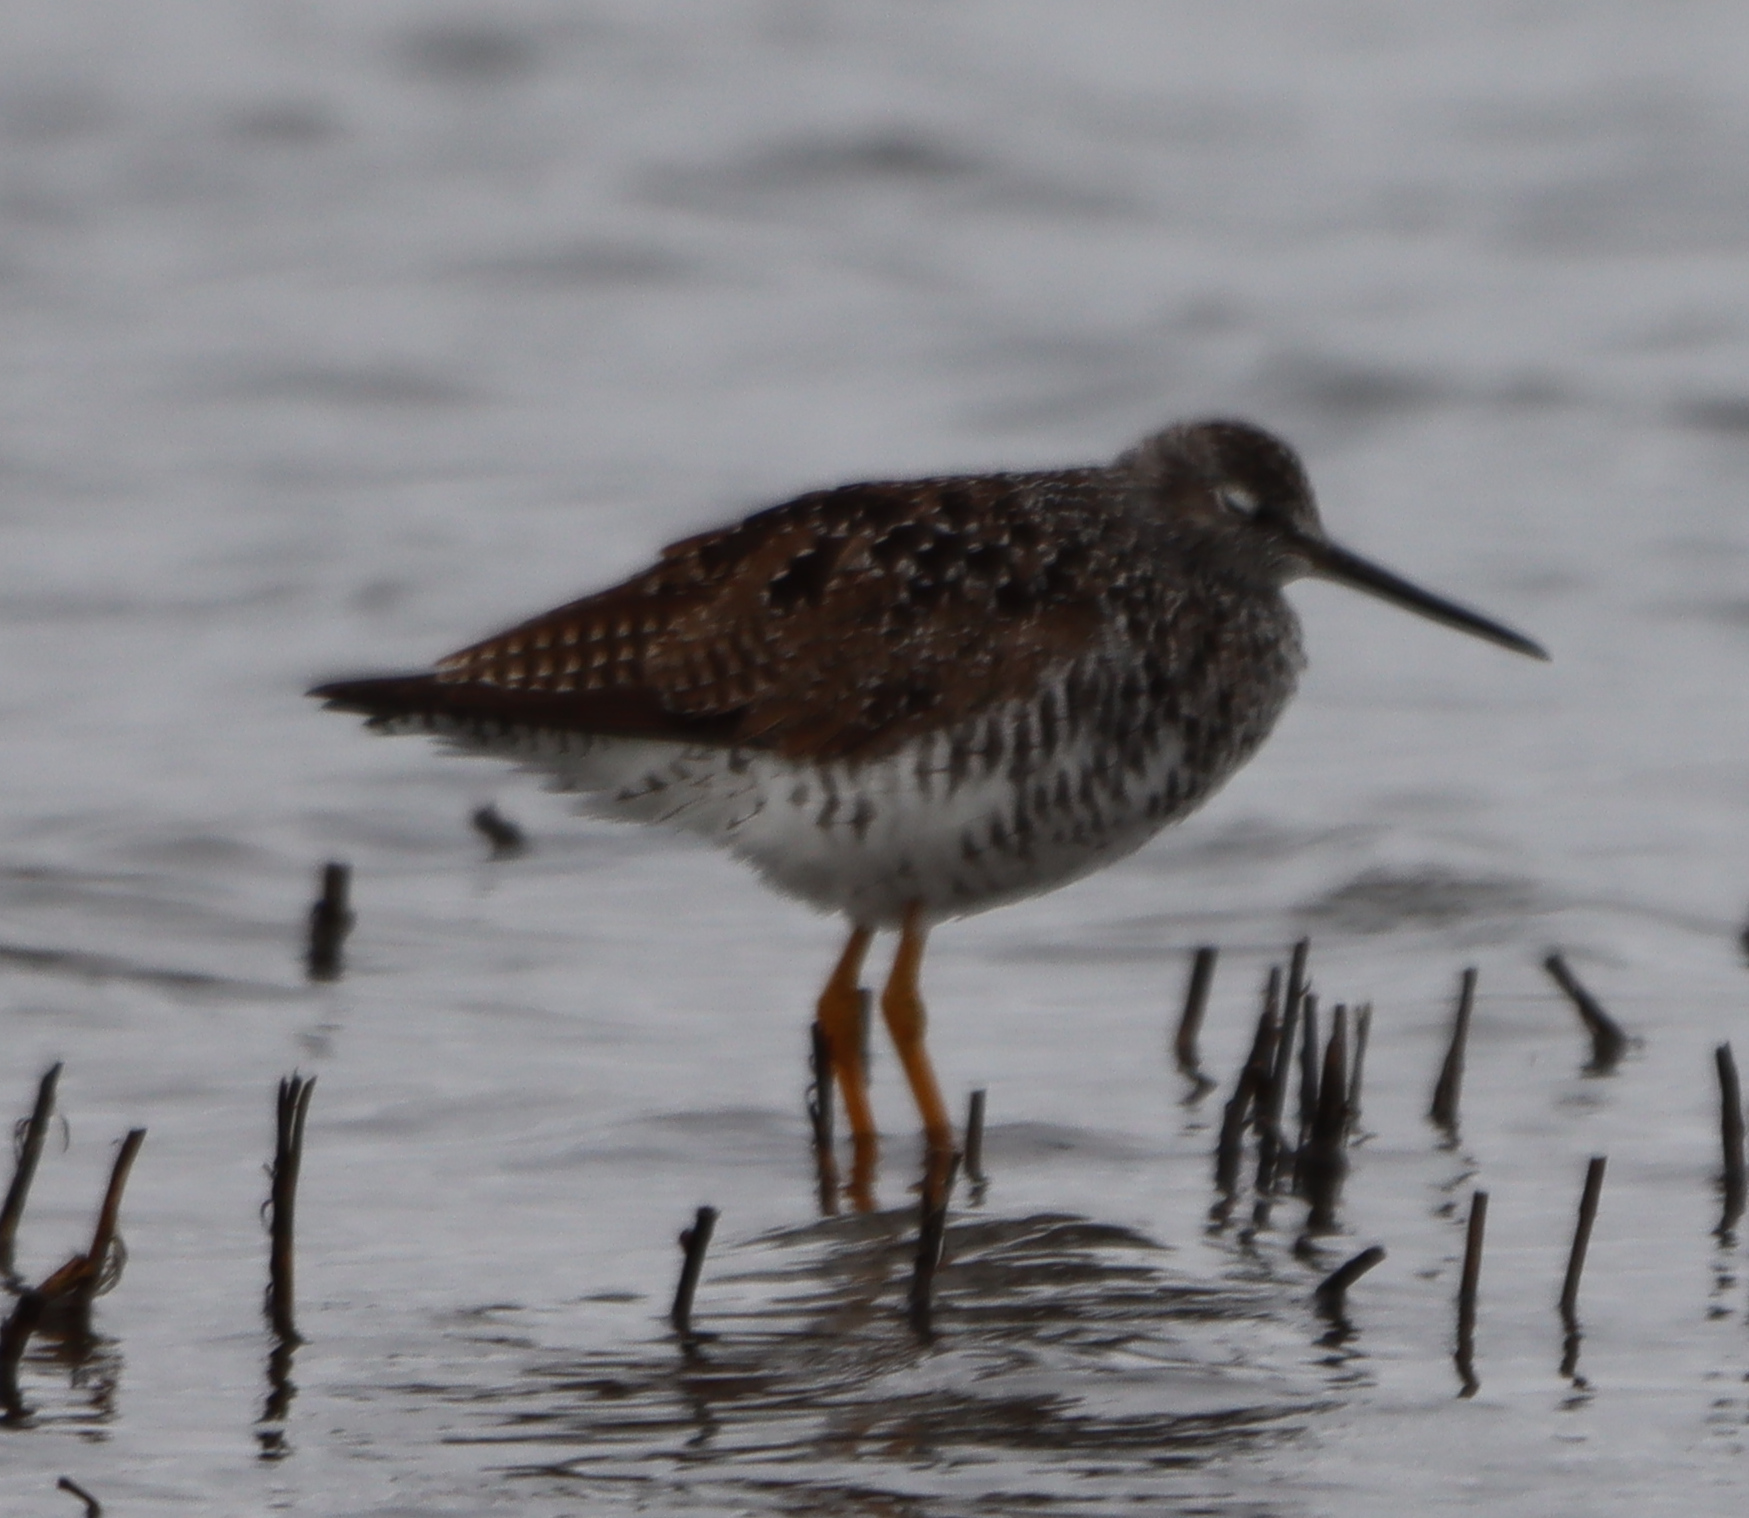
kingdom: Animalia
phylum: Chordata
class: Aves
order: Charadriiformes
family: Scolopacidae
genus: Tringa
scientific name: Tringa melanoleuca
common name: Greater yellowlegs
